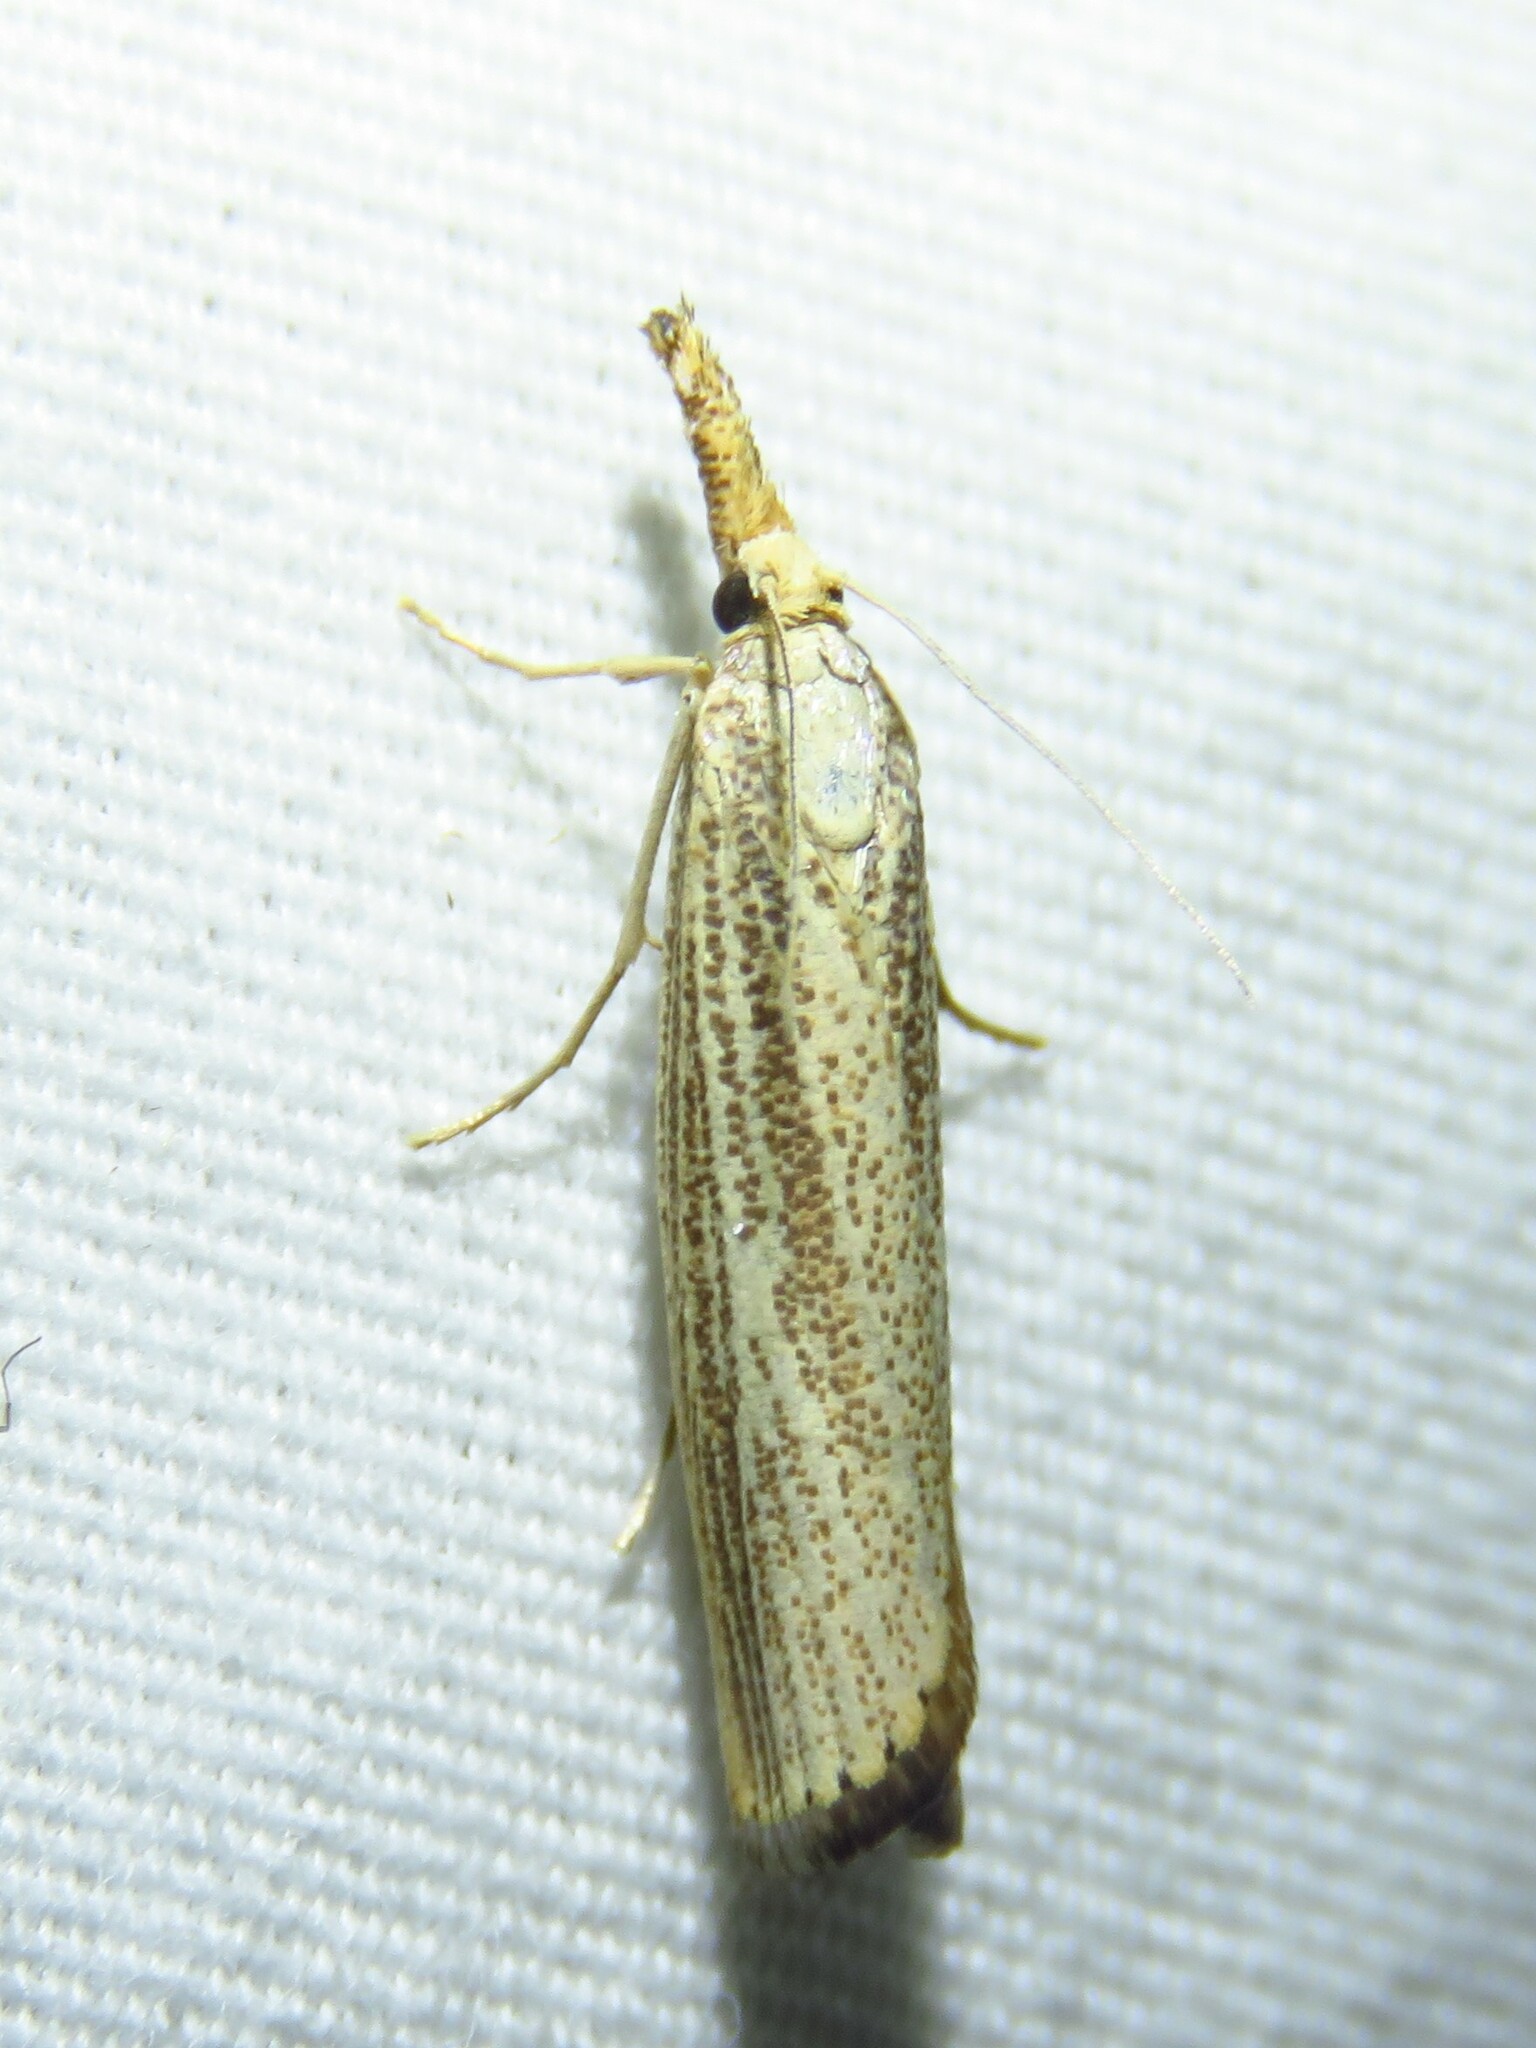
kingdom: Animalia
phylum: Arthropoda
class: Insecta
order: Lepidoptera
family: Crambidae
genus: Agriphila
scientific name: Agriphila vulgivagellus
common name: Vagabond crambus moth
